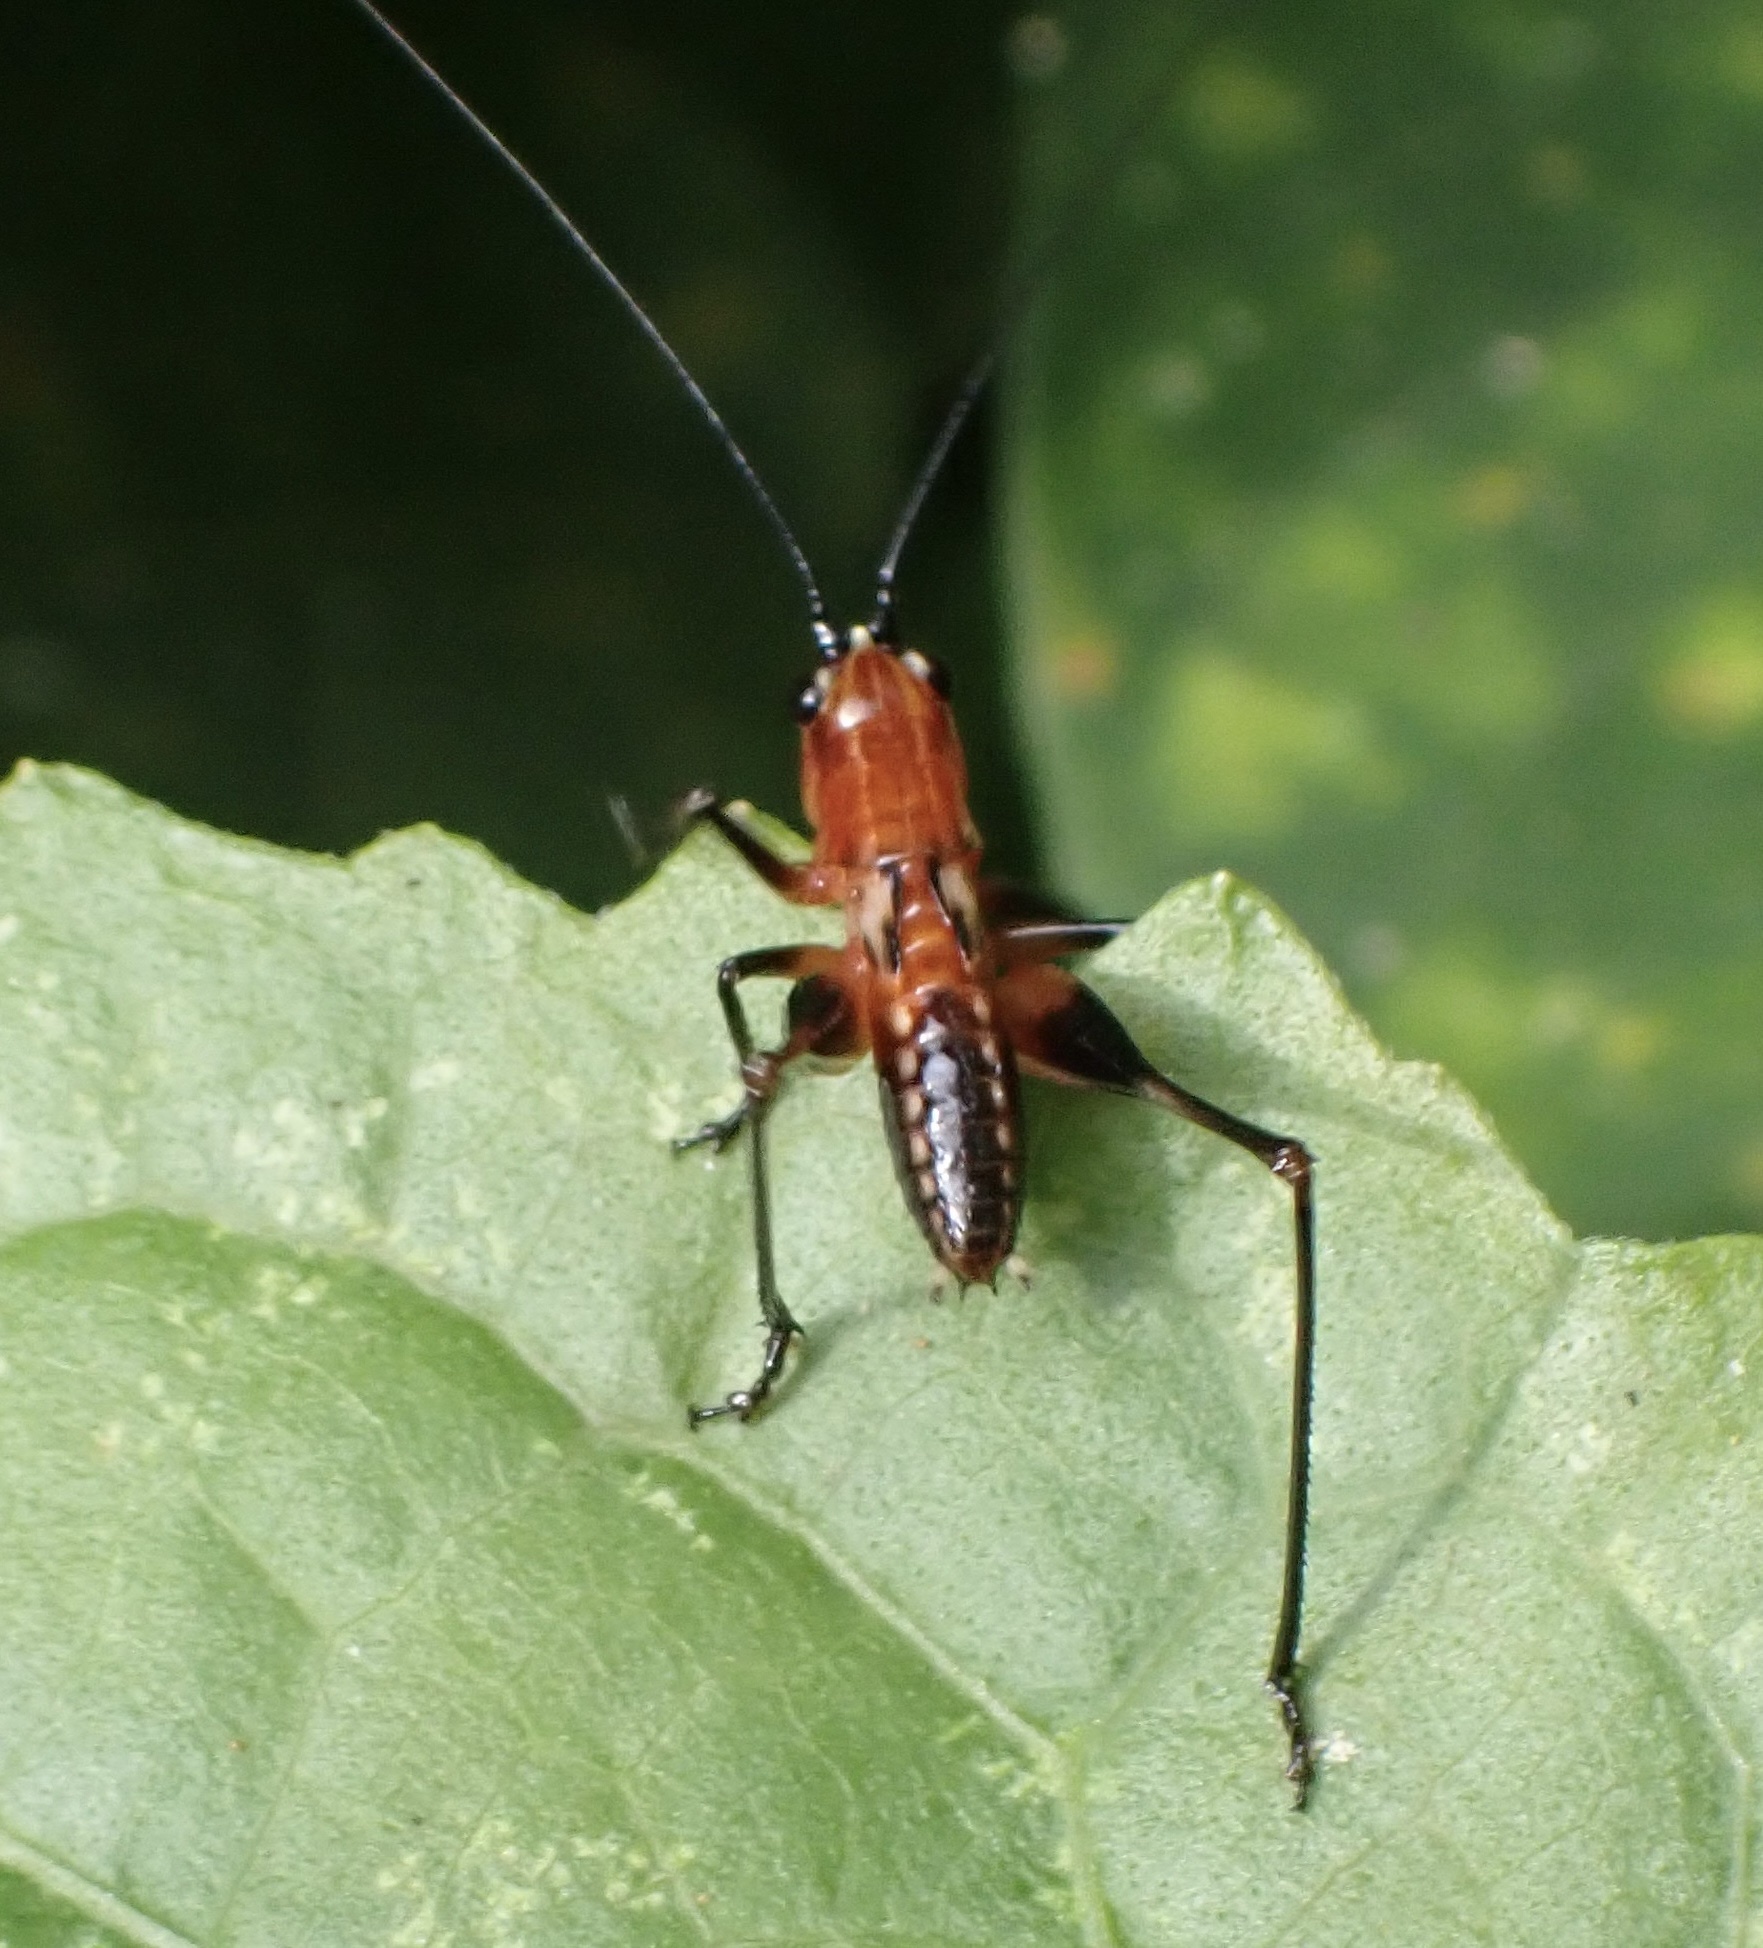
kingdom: Animalia
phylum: Arthropoda
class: Insecta
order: Orthoptera
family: Tettigoniidae
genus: Conocephalus
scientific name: Conocephalus melaenus
